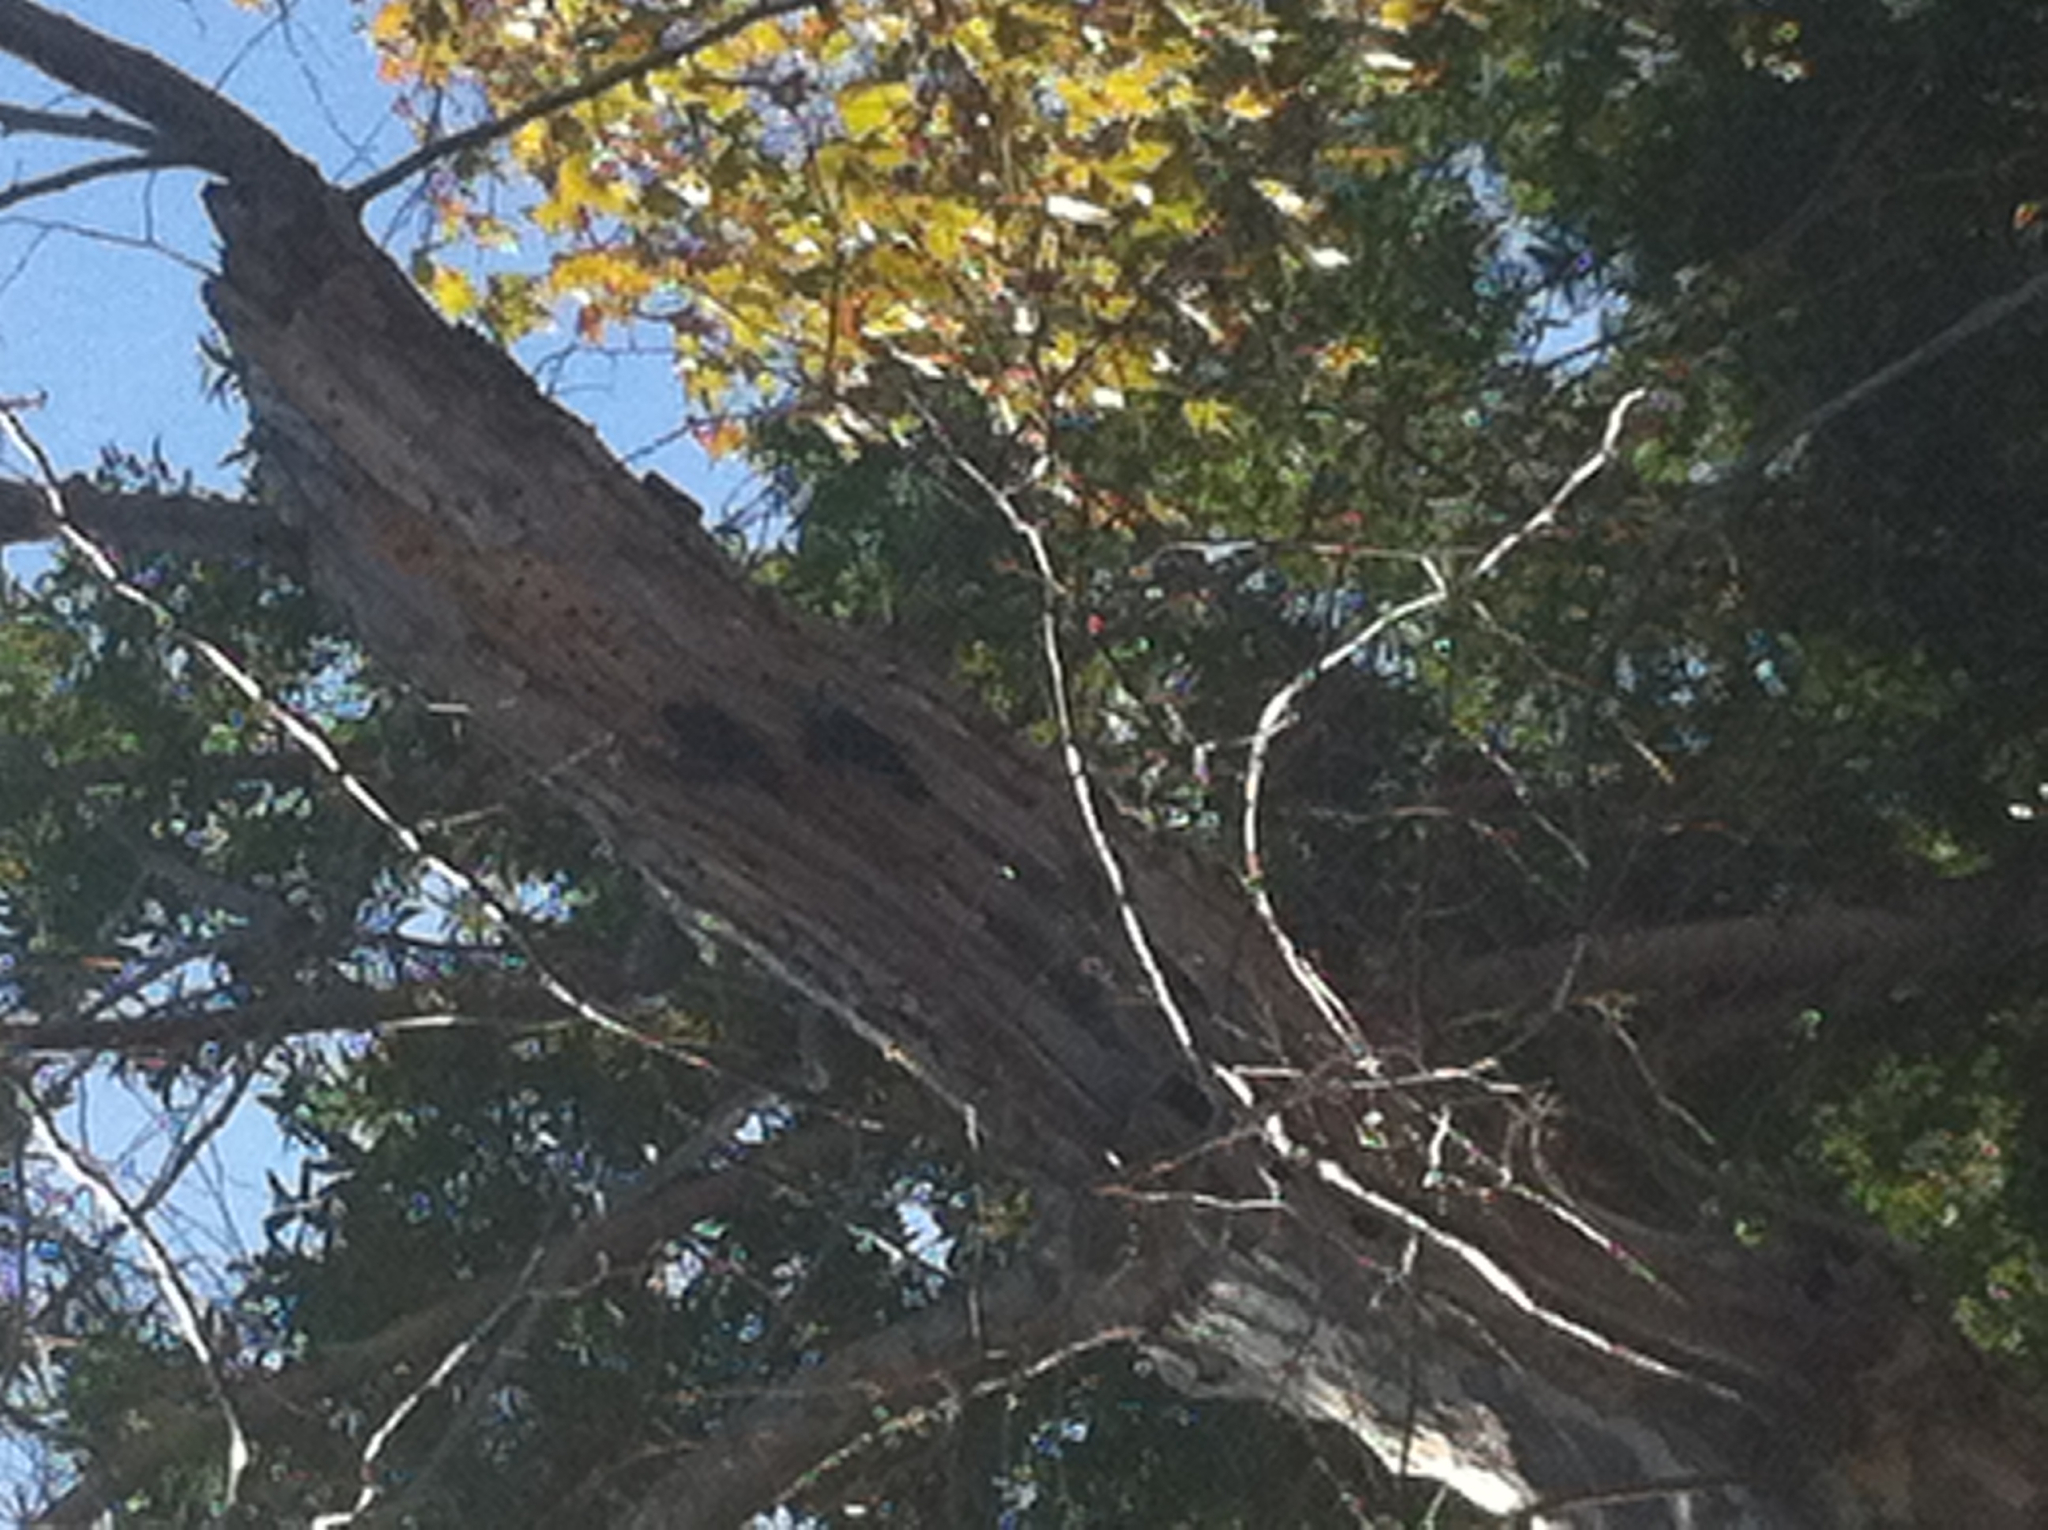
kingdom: Animalia
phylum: Chordata
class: Aves
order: Piciformes
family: Picidae
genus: Melanerpes
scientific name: Melanerpes formicivorus
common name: Acorn woodpecker
